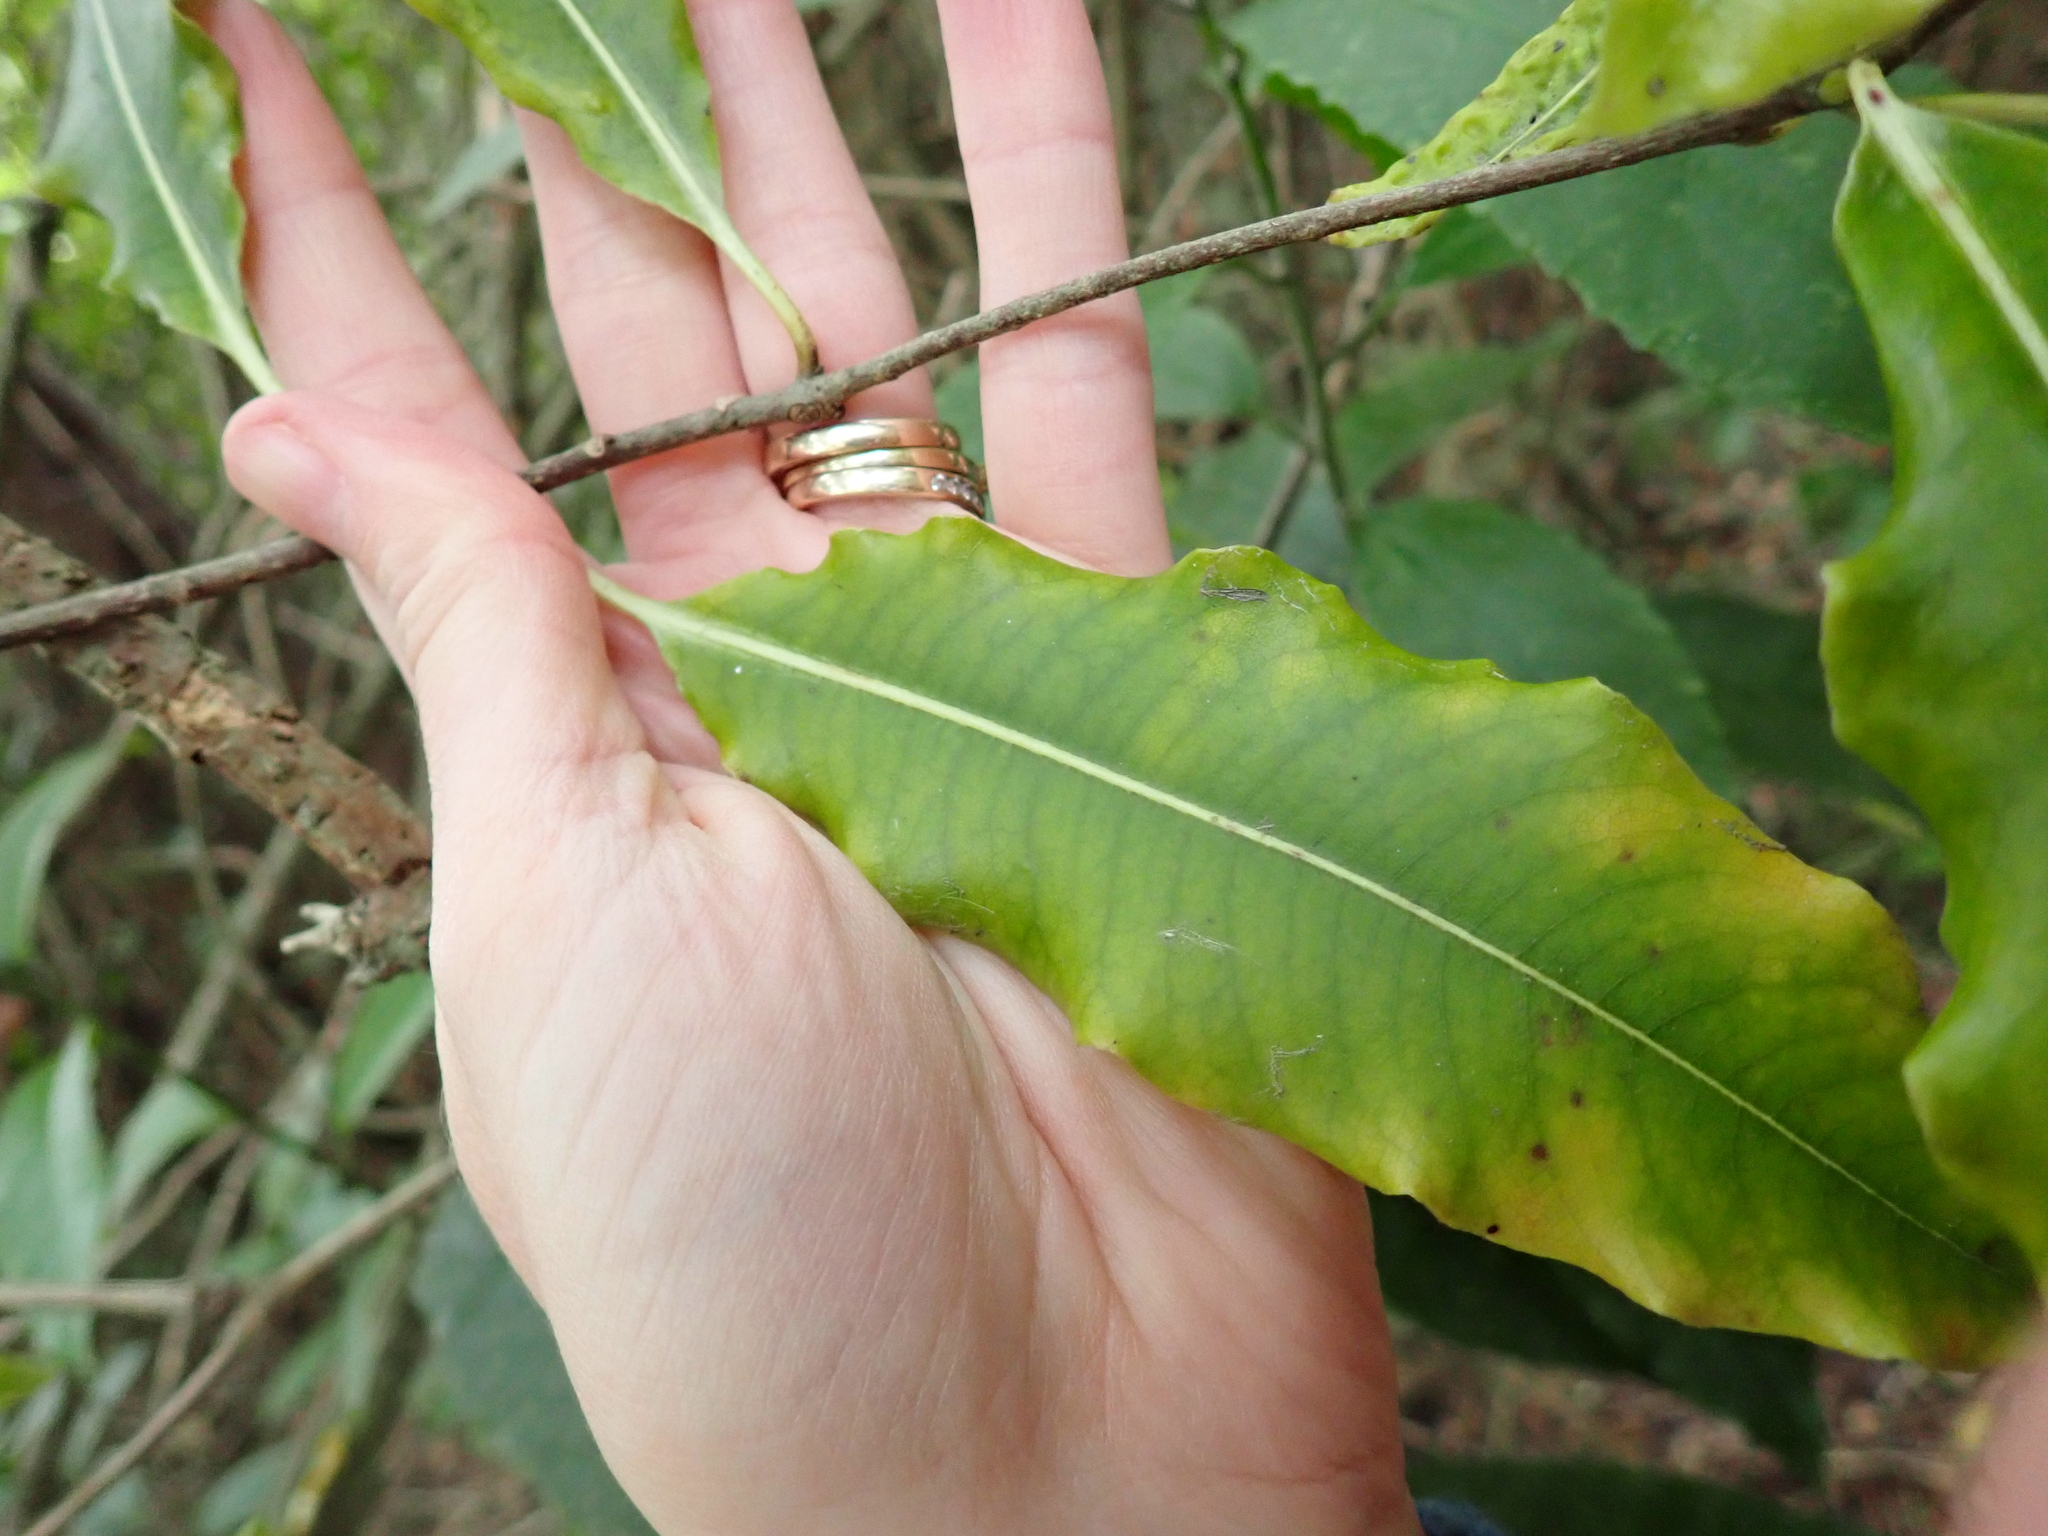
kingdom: Plantae
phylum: Tracheophyta
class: Magnoliopsida
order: Apiales
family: Pittosporaceae
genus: Pittosporum
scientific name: Pittosporum eugenioides
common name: Lemonwood
